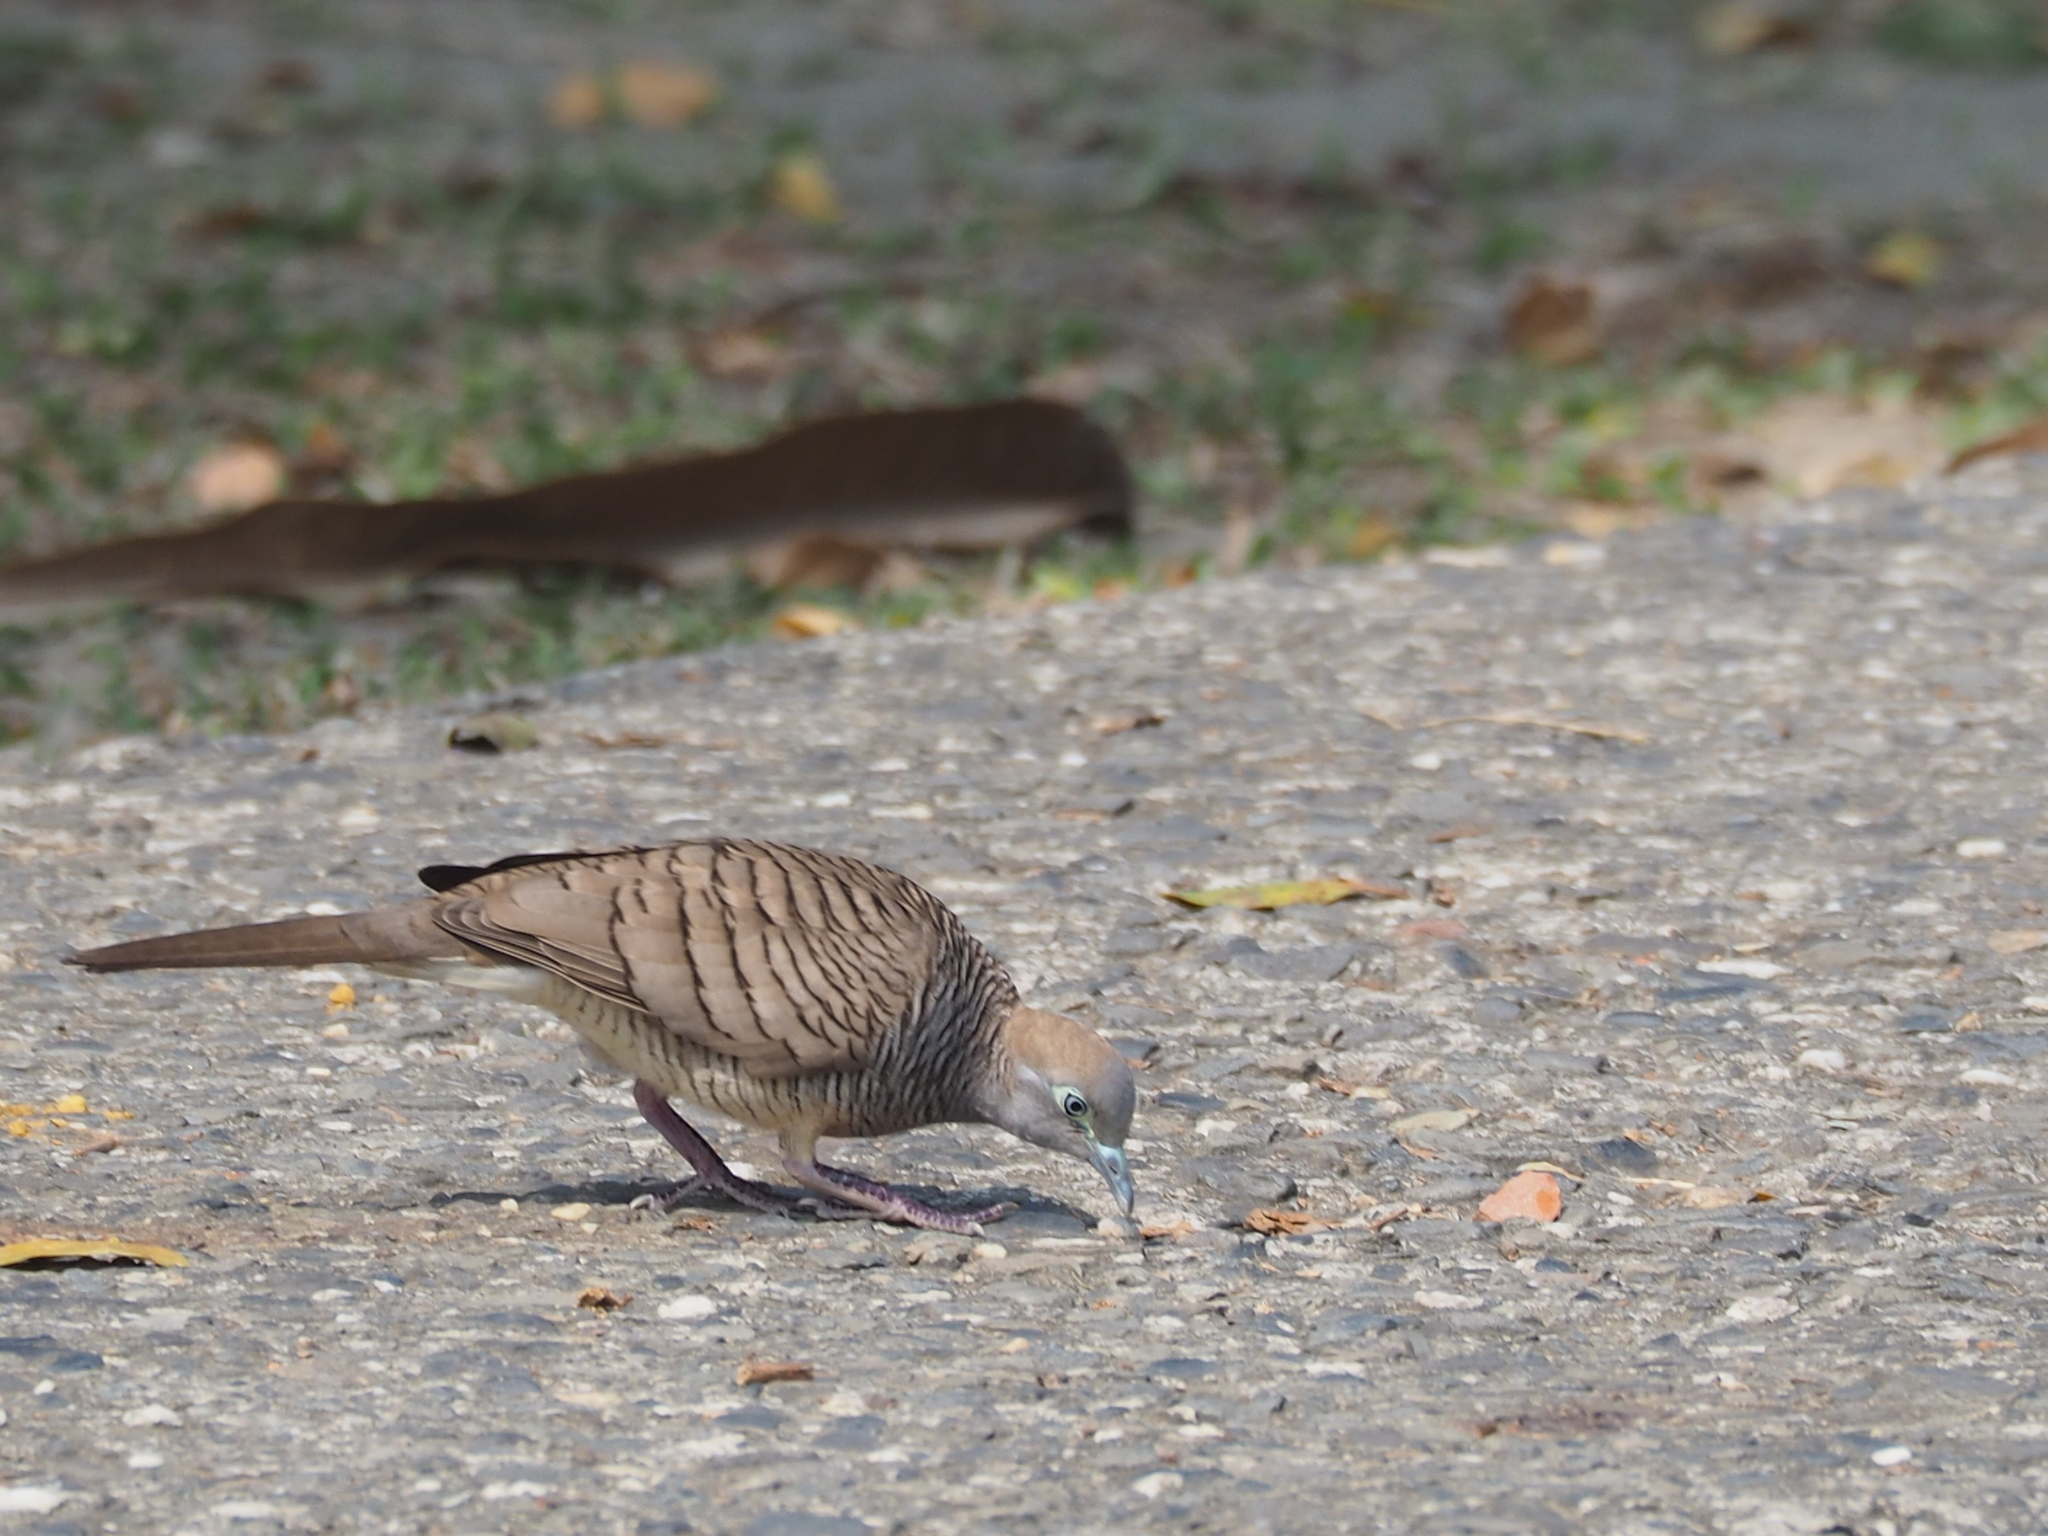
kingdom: Animalia
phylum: Chordata
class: Aves
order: Columbiformes
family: Columbidae
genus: Geopelia
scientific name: Geopelia striata
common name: Zebra dove
